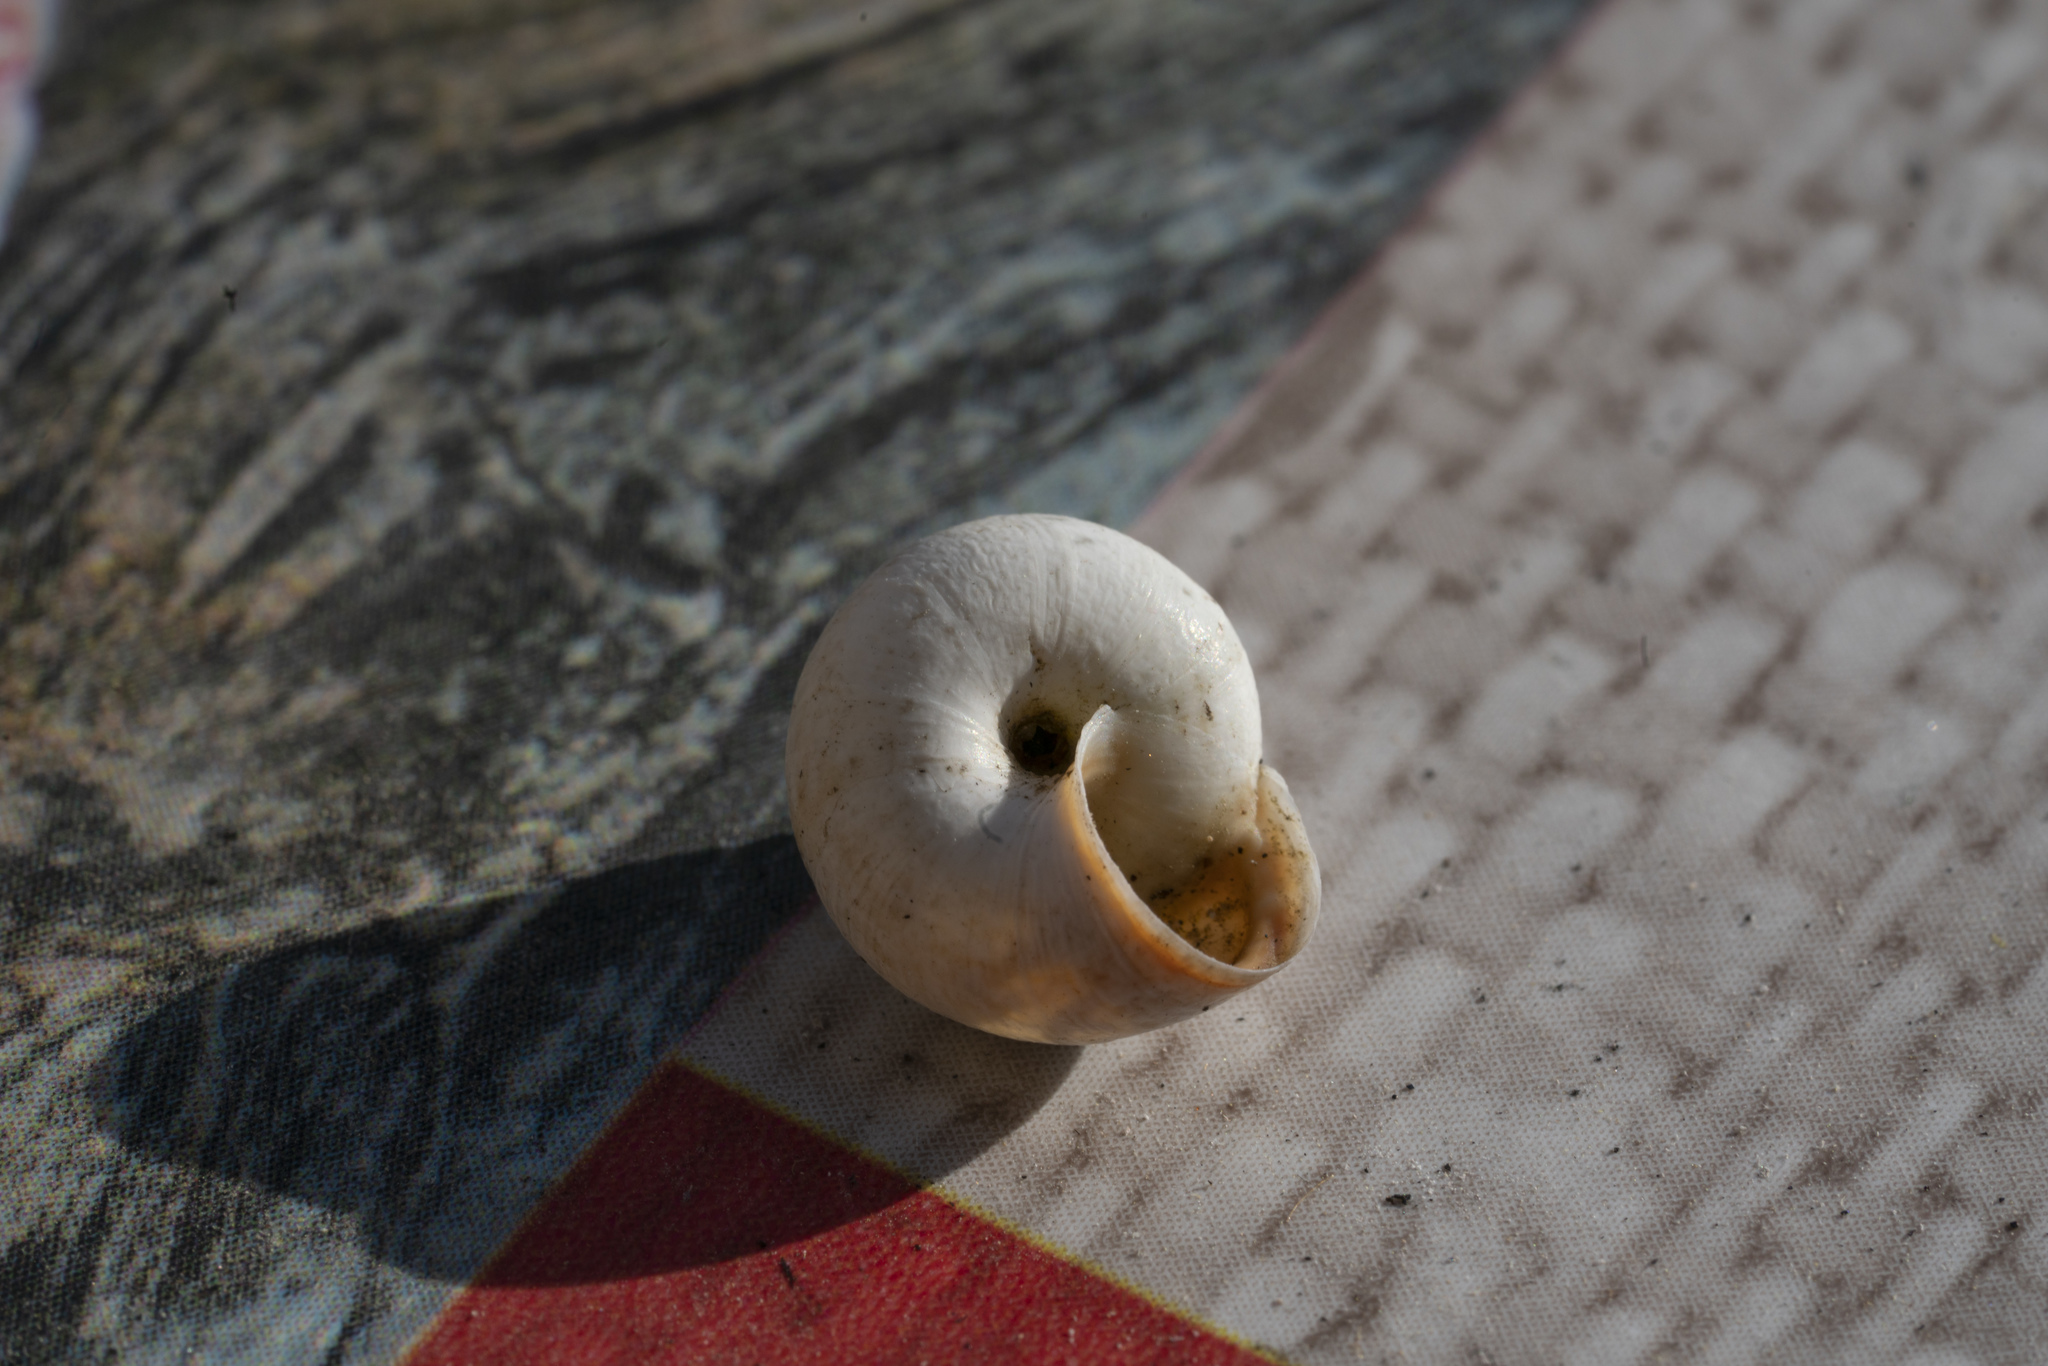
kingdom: Animalia
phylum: Mollusca
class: Gastropoda
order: Stylommatophora
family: Geomitridae
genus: Cernuella
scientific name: Cernuella virgata
